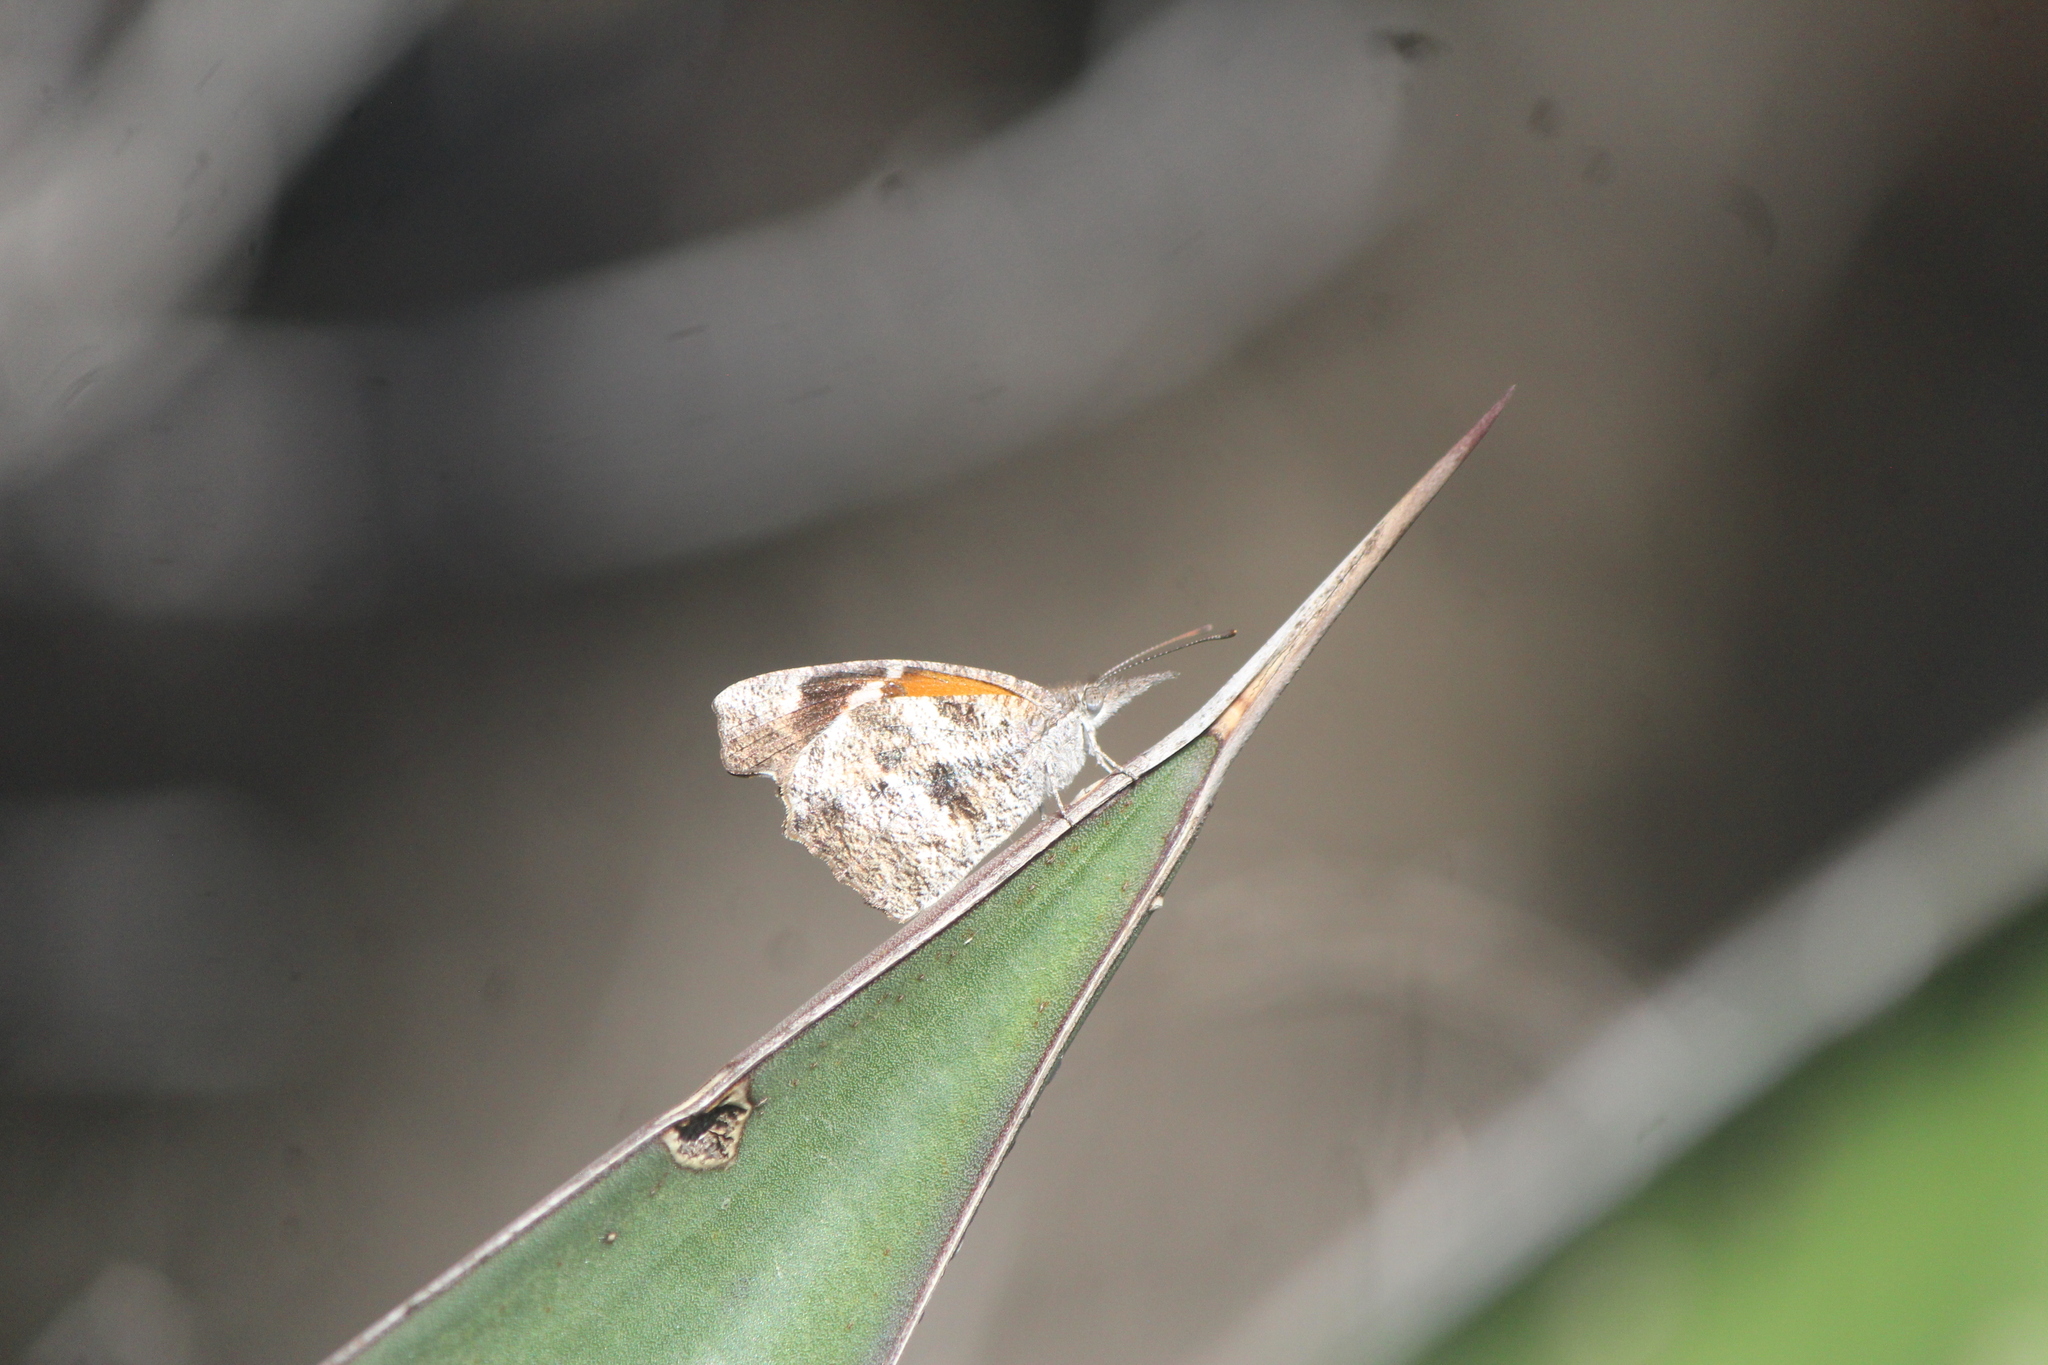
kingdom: Animalia
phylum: Arthropoda
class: Insecta
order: Lepidoptera
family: Nymphalidae
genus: Libytheana
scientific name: Libytheana carinenta
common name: American snout
